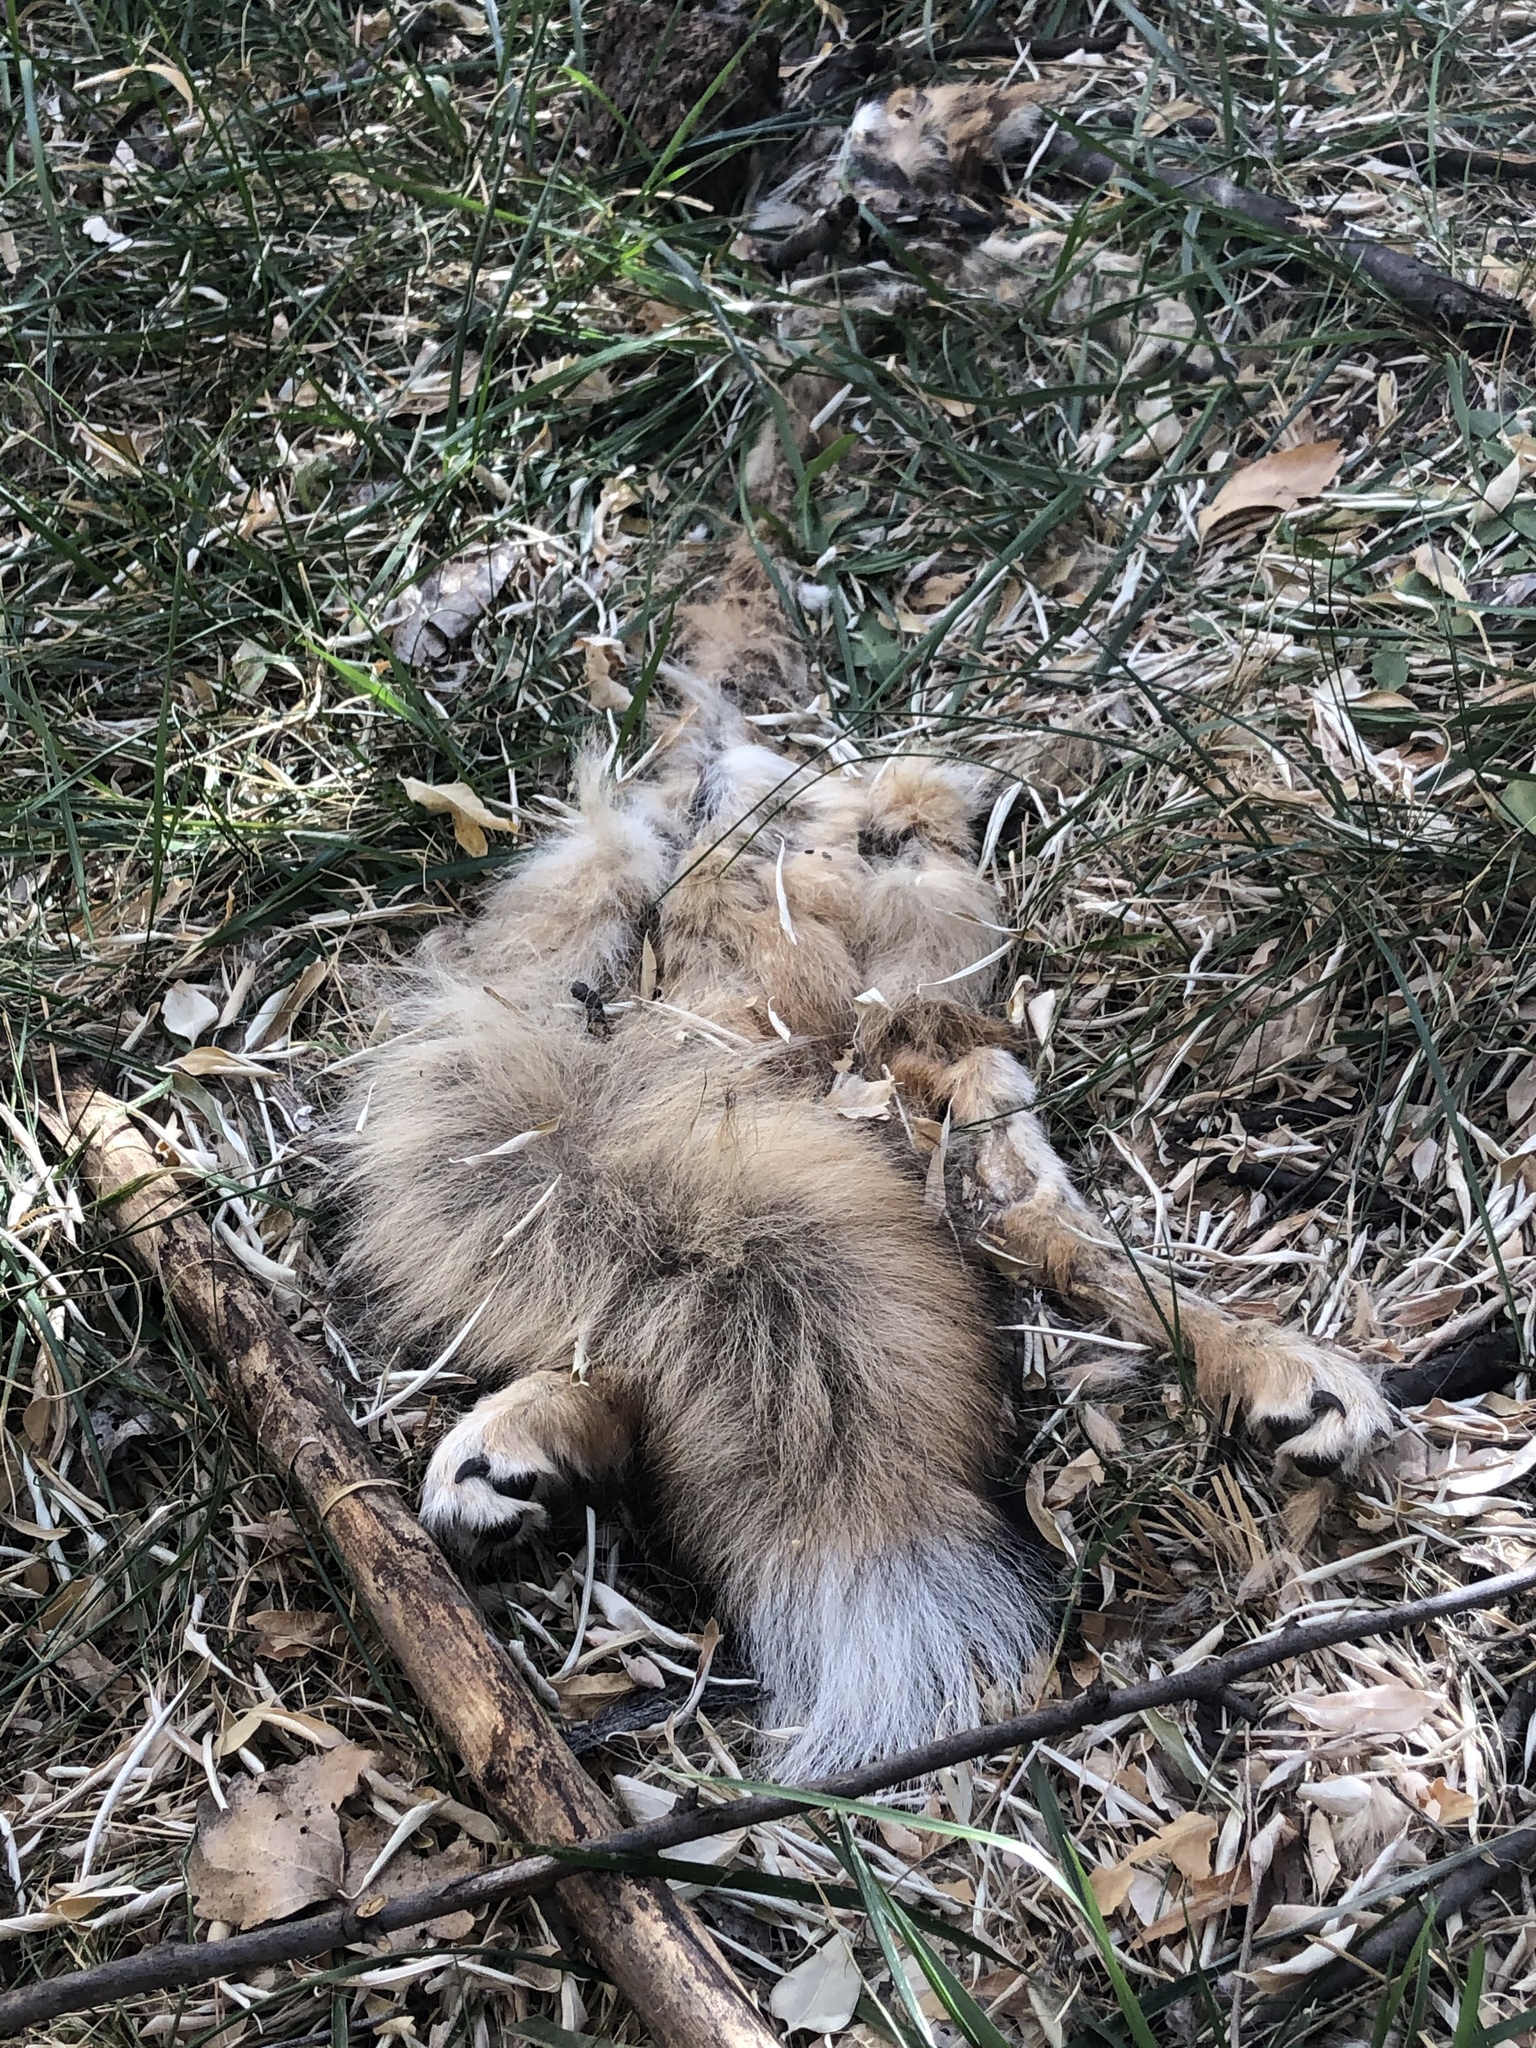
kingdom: Animalia
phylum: Chordata
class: Mammalia
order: Carnivora
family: Canidae
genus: Vulpes
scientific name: Vulpes vulpes
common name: Red fox
